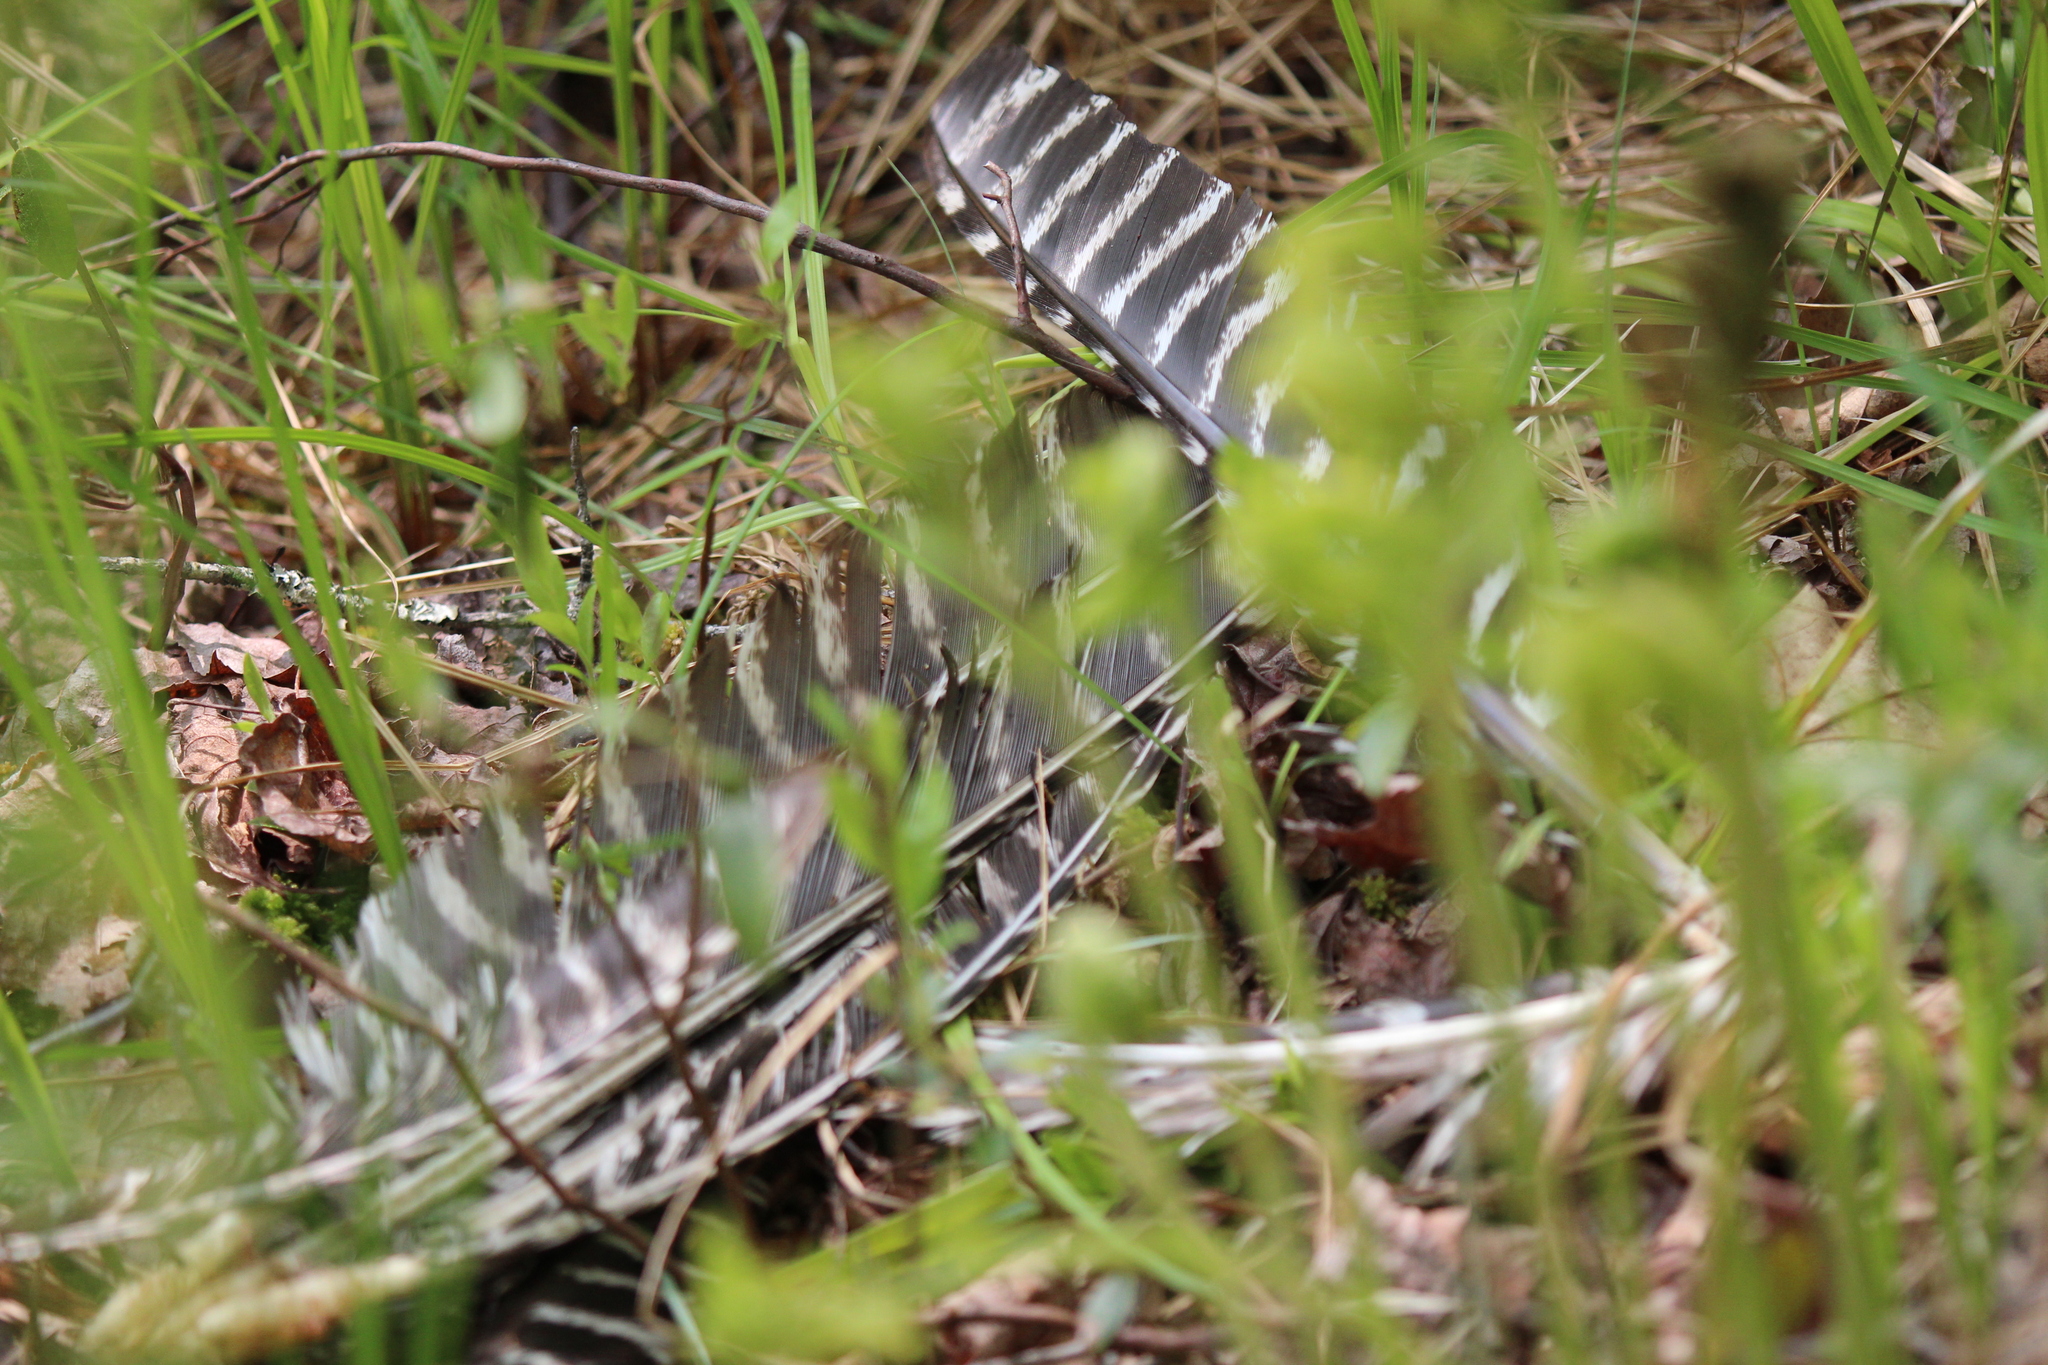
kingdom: Animalia
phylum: Chordata
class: Aves
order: Galliformes
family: Phasianidae
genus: Meleagris
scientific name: Meleagris gallopavo
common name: Wild turkey
